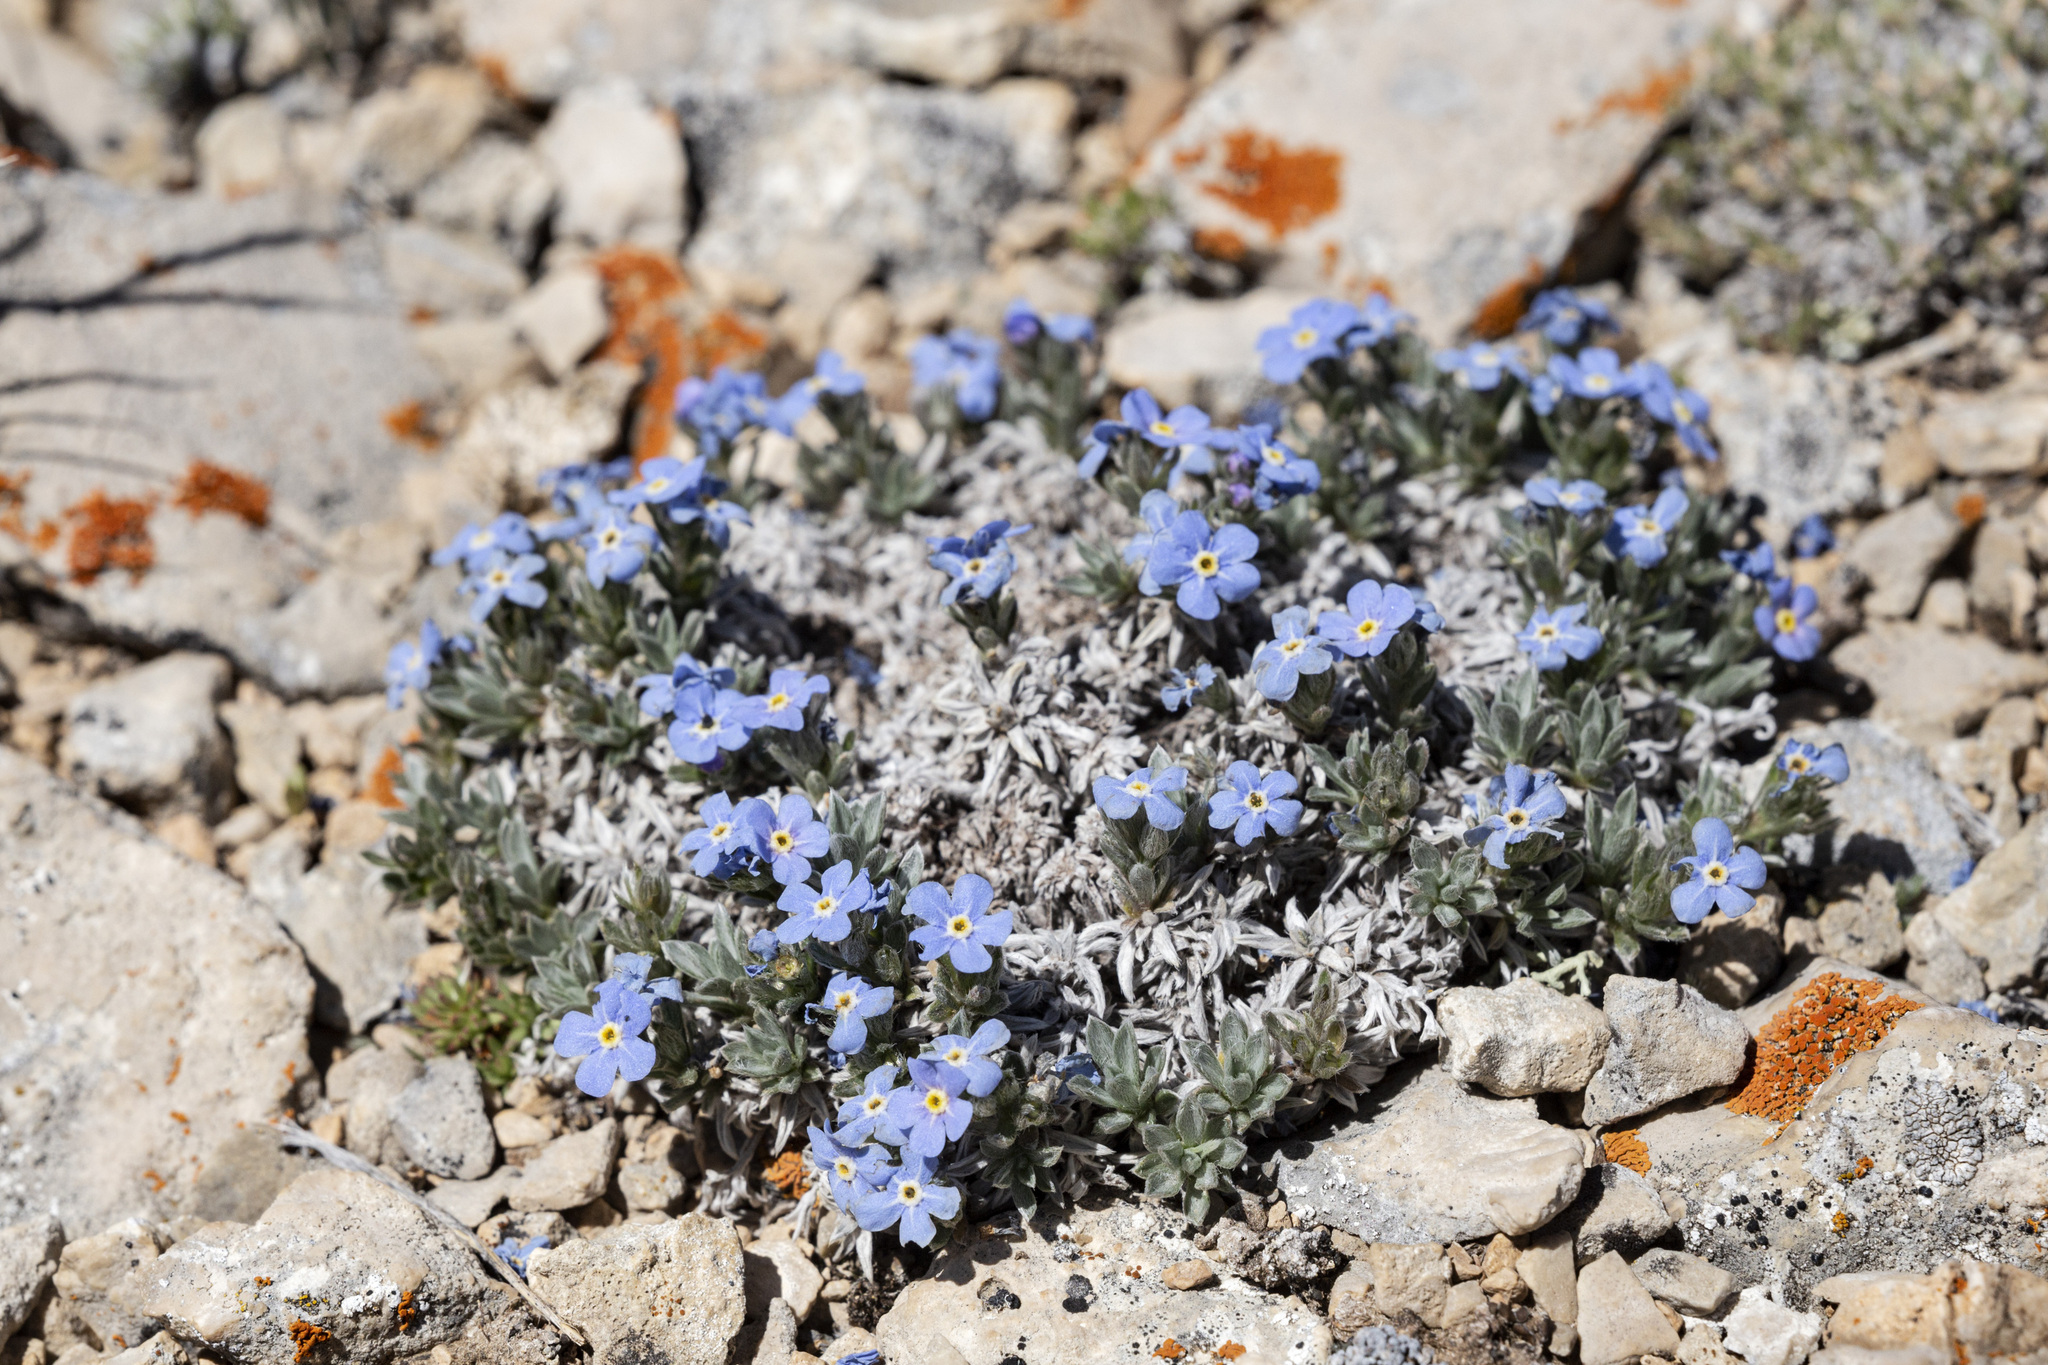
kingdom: Plantae
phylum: Tracheophyta
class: Magnoliopsida
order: Boraginales
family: Boraginaceae
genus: Eritrichium
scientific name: Eritrichium howardii
